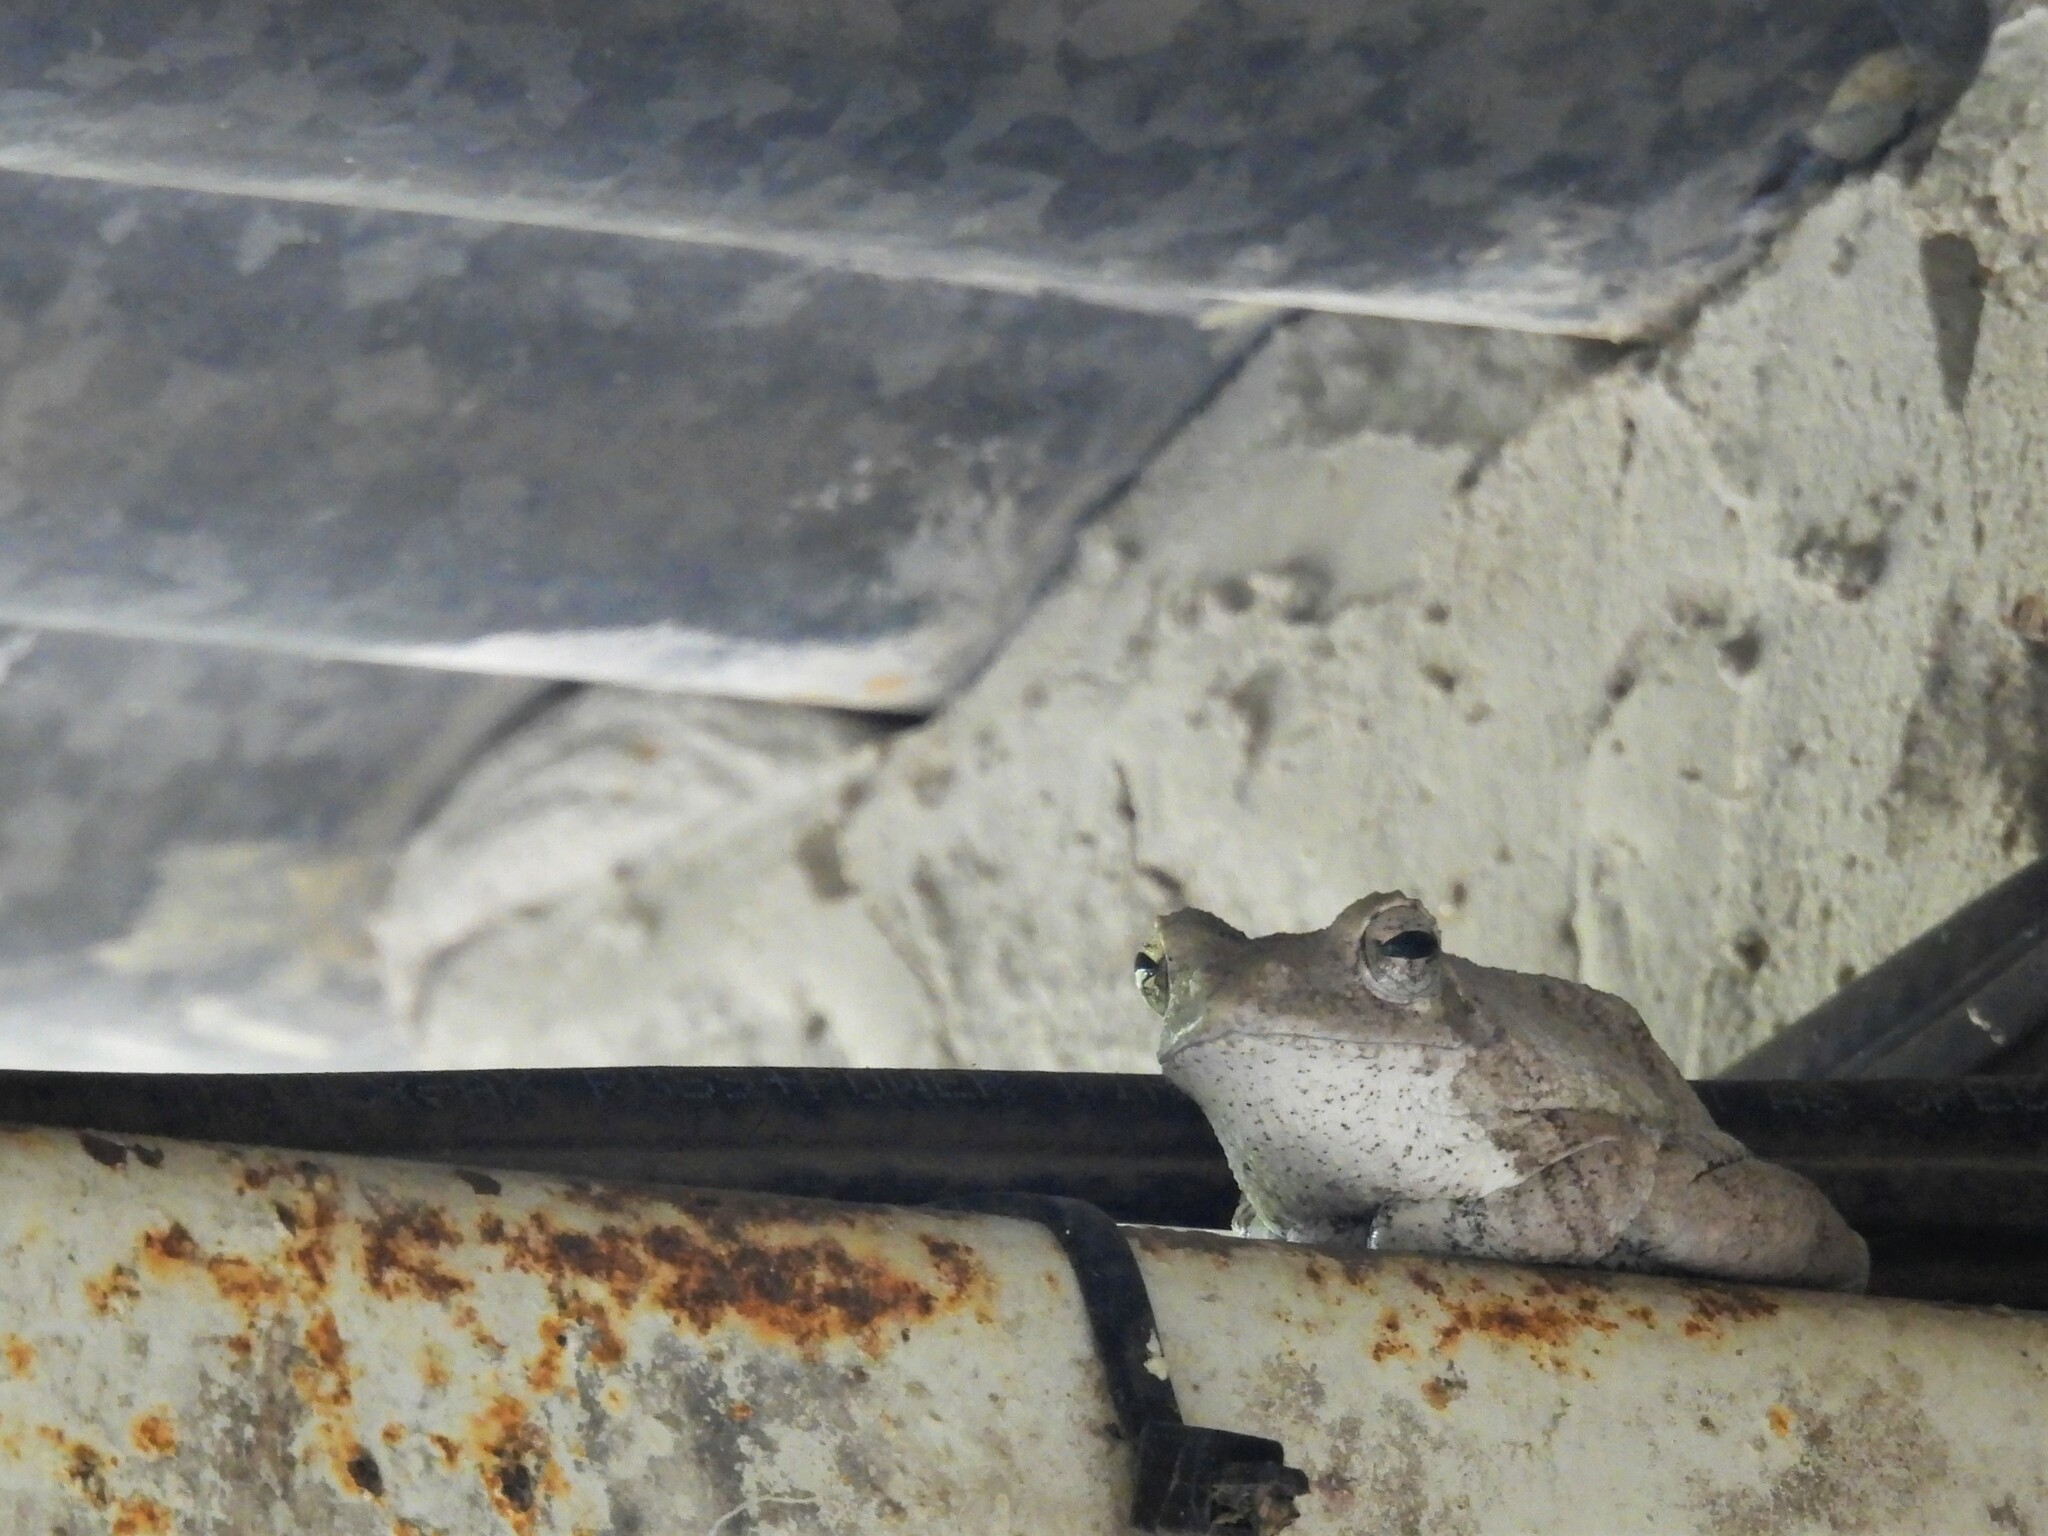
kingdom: Animalia
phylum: Chordata
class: Amphibia
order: Anura
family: Rhacophoridae
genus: Chiromantis
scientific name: Chiromantis xerampelina
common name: African gray treefrog
